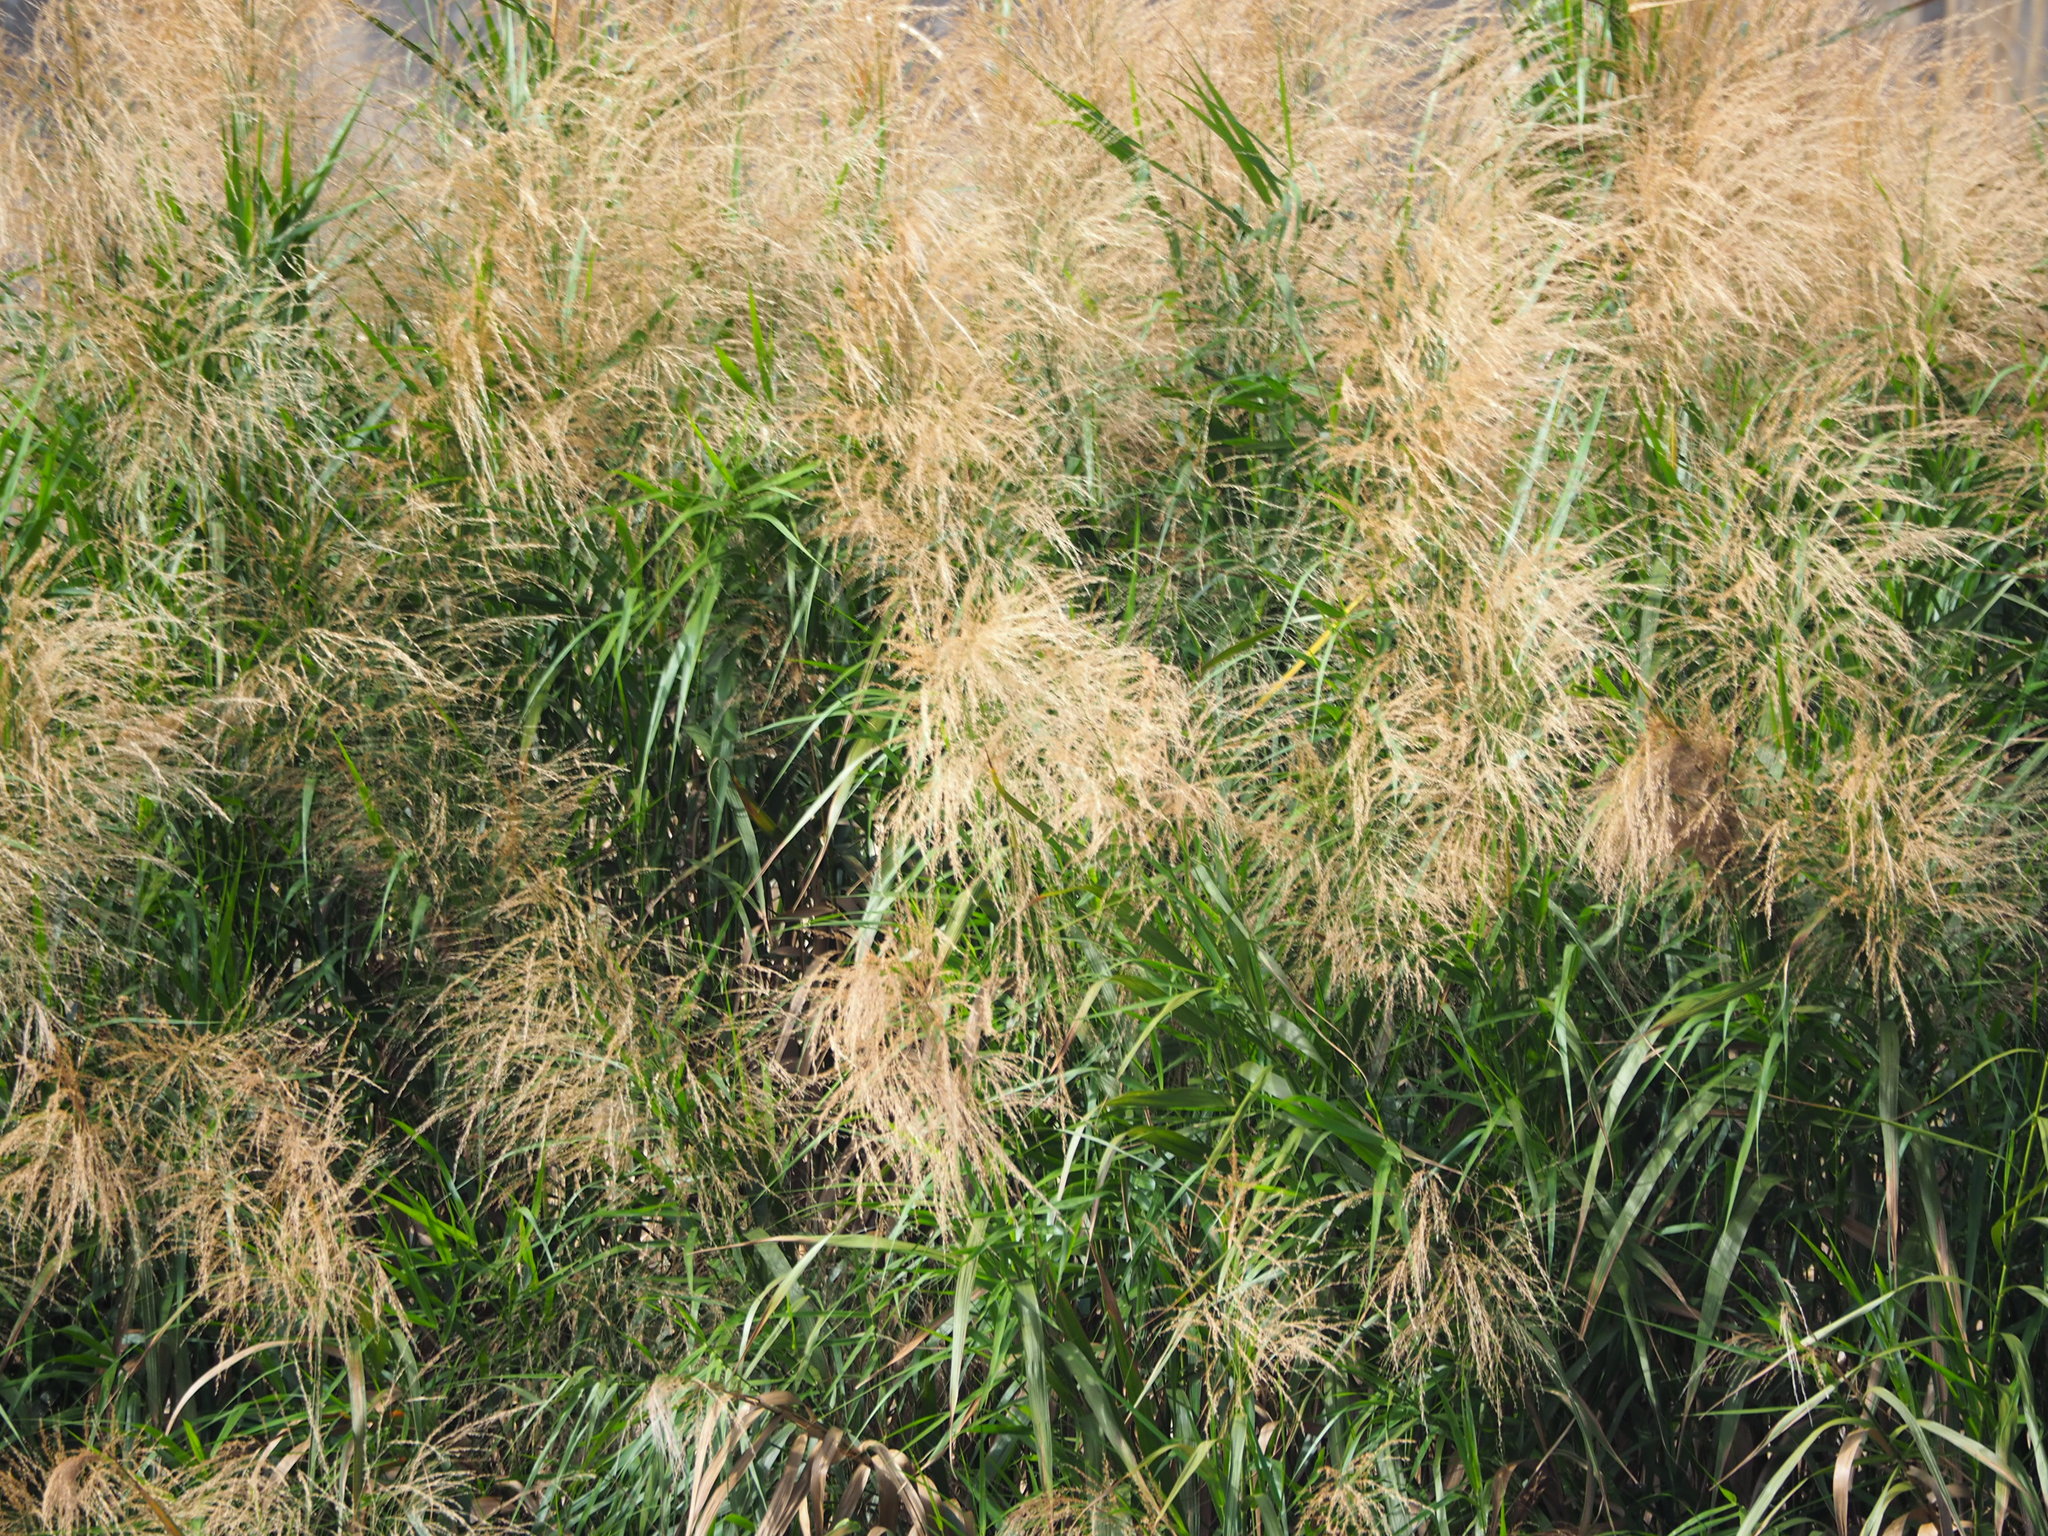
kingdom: Plantae
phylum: Tracheophyta
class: Liliopsida
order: Poales
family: Poaceae
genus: Phragmites
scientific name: Phragmites karka
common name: Tropical reed
